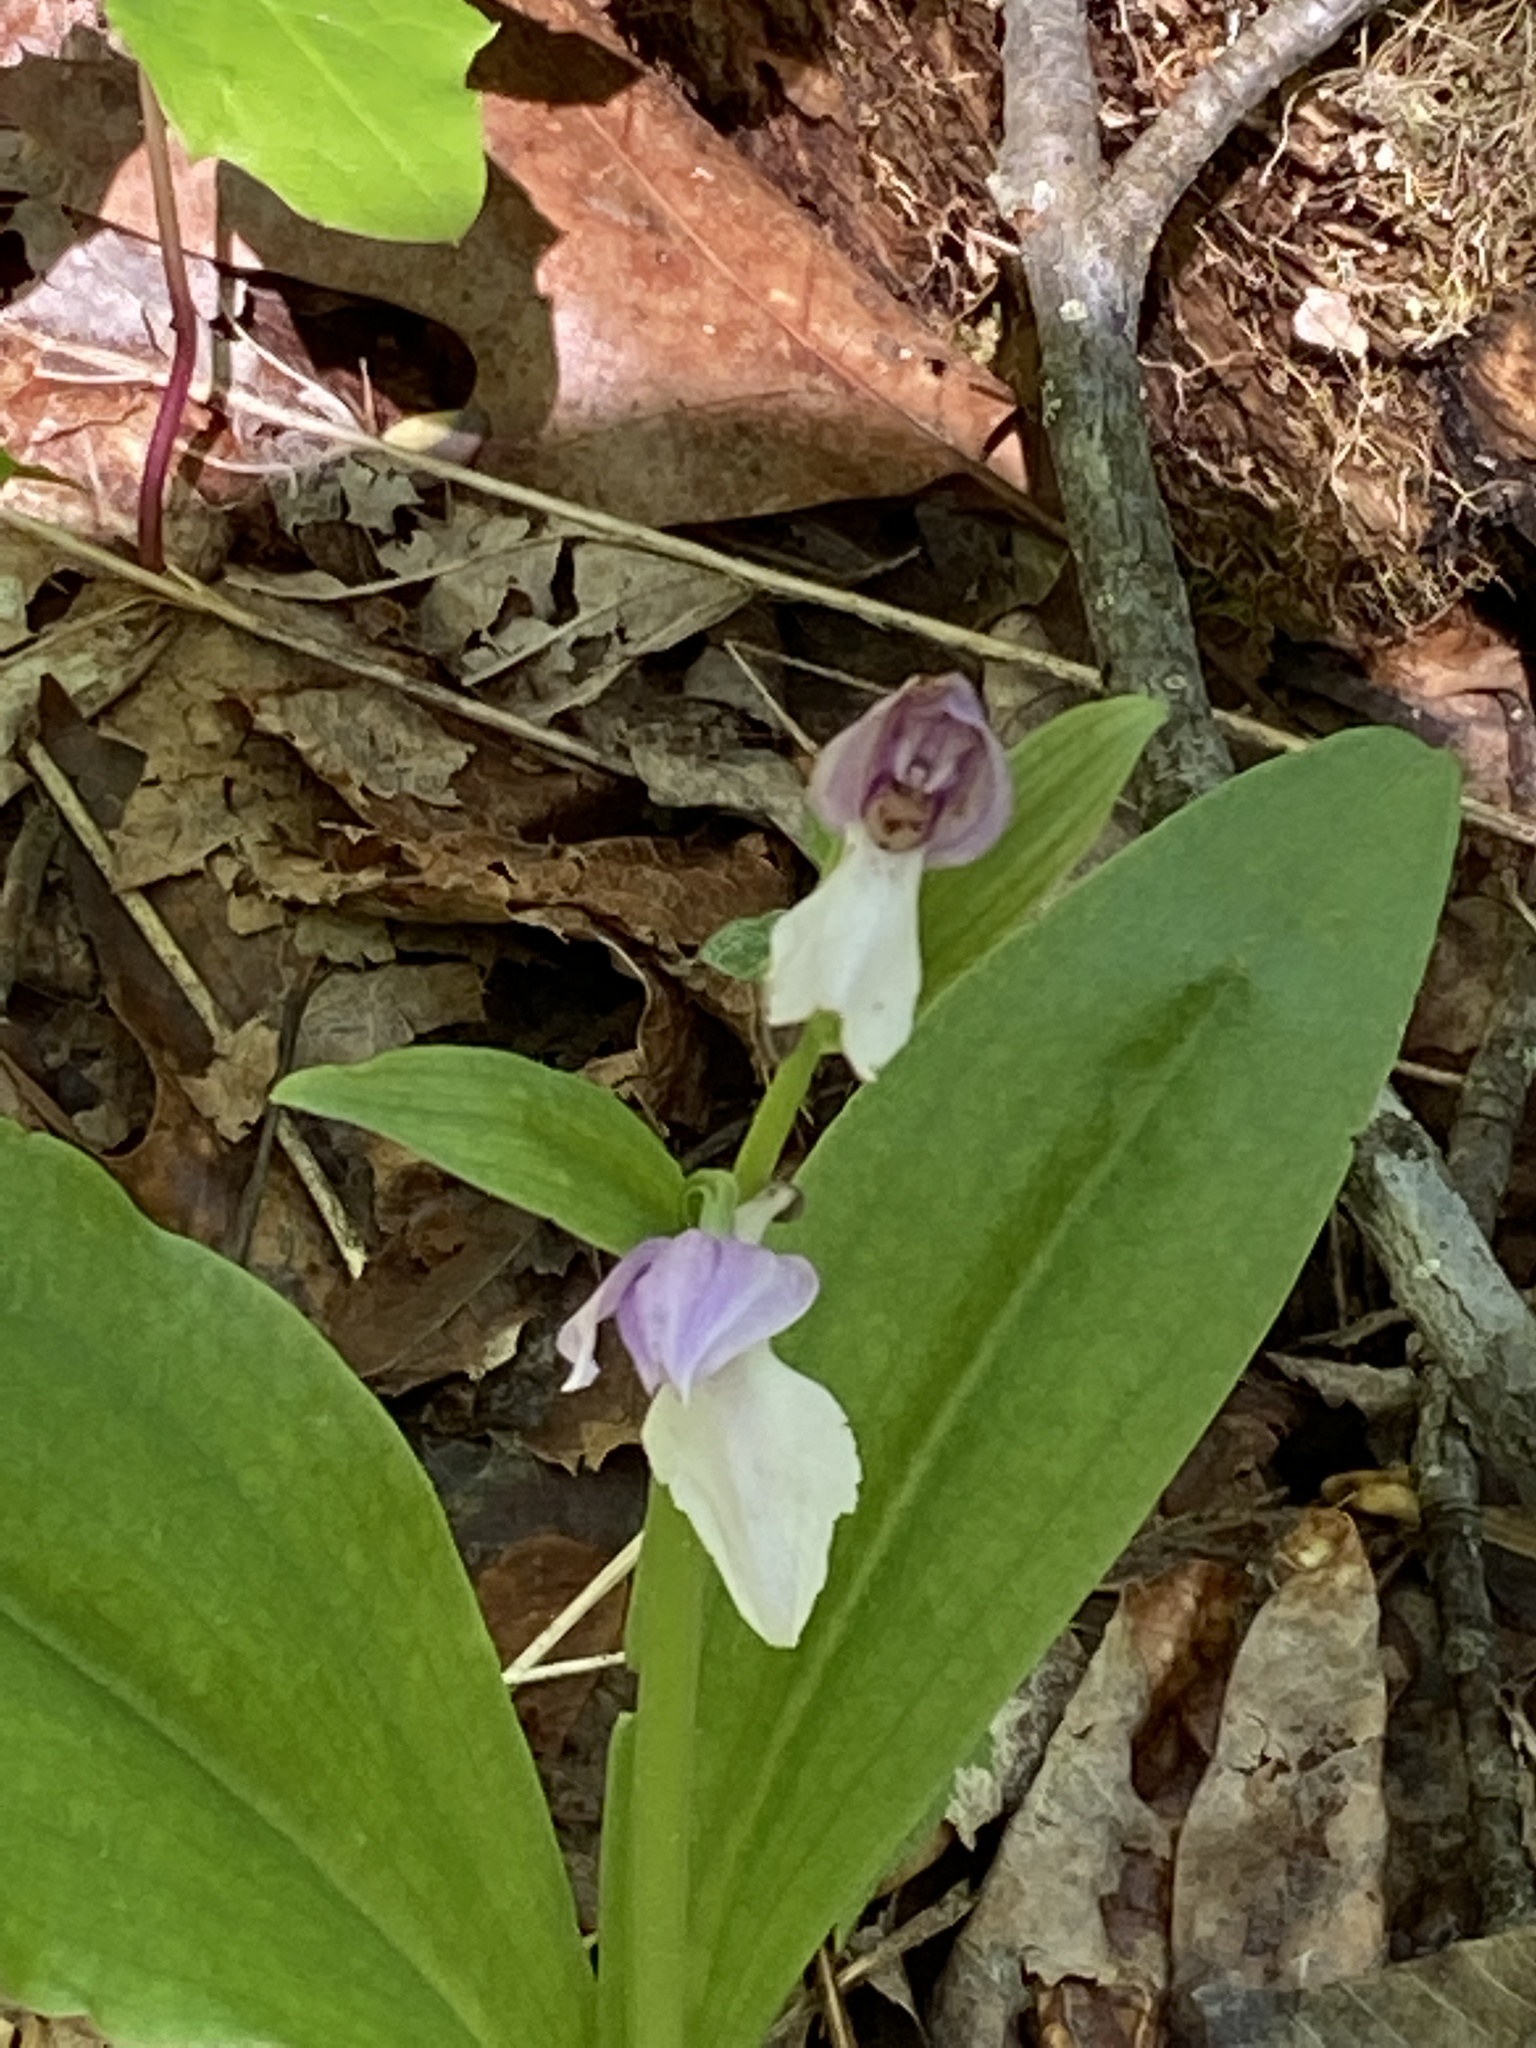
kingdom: Plantae
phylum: Tracheophyta
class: Liliopsida
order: Asparagales
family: Orchidaceae
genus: Galearis
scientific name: Galearis spectabilis
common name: Purple-hooded orchis
